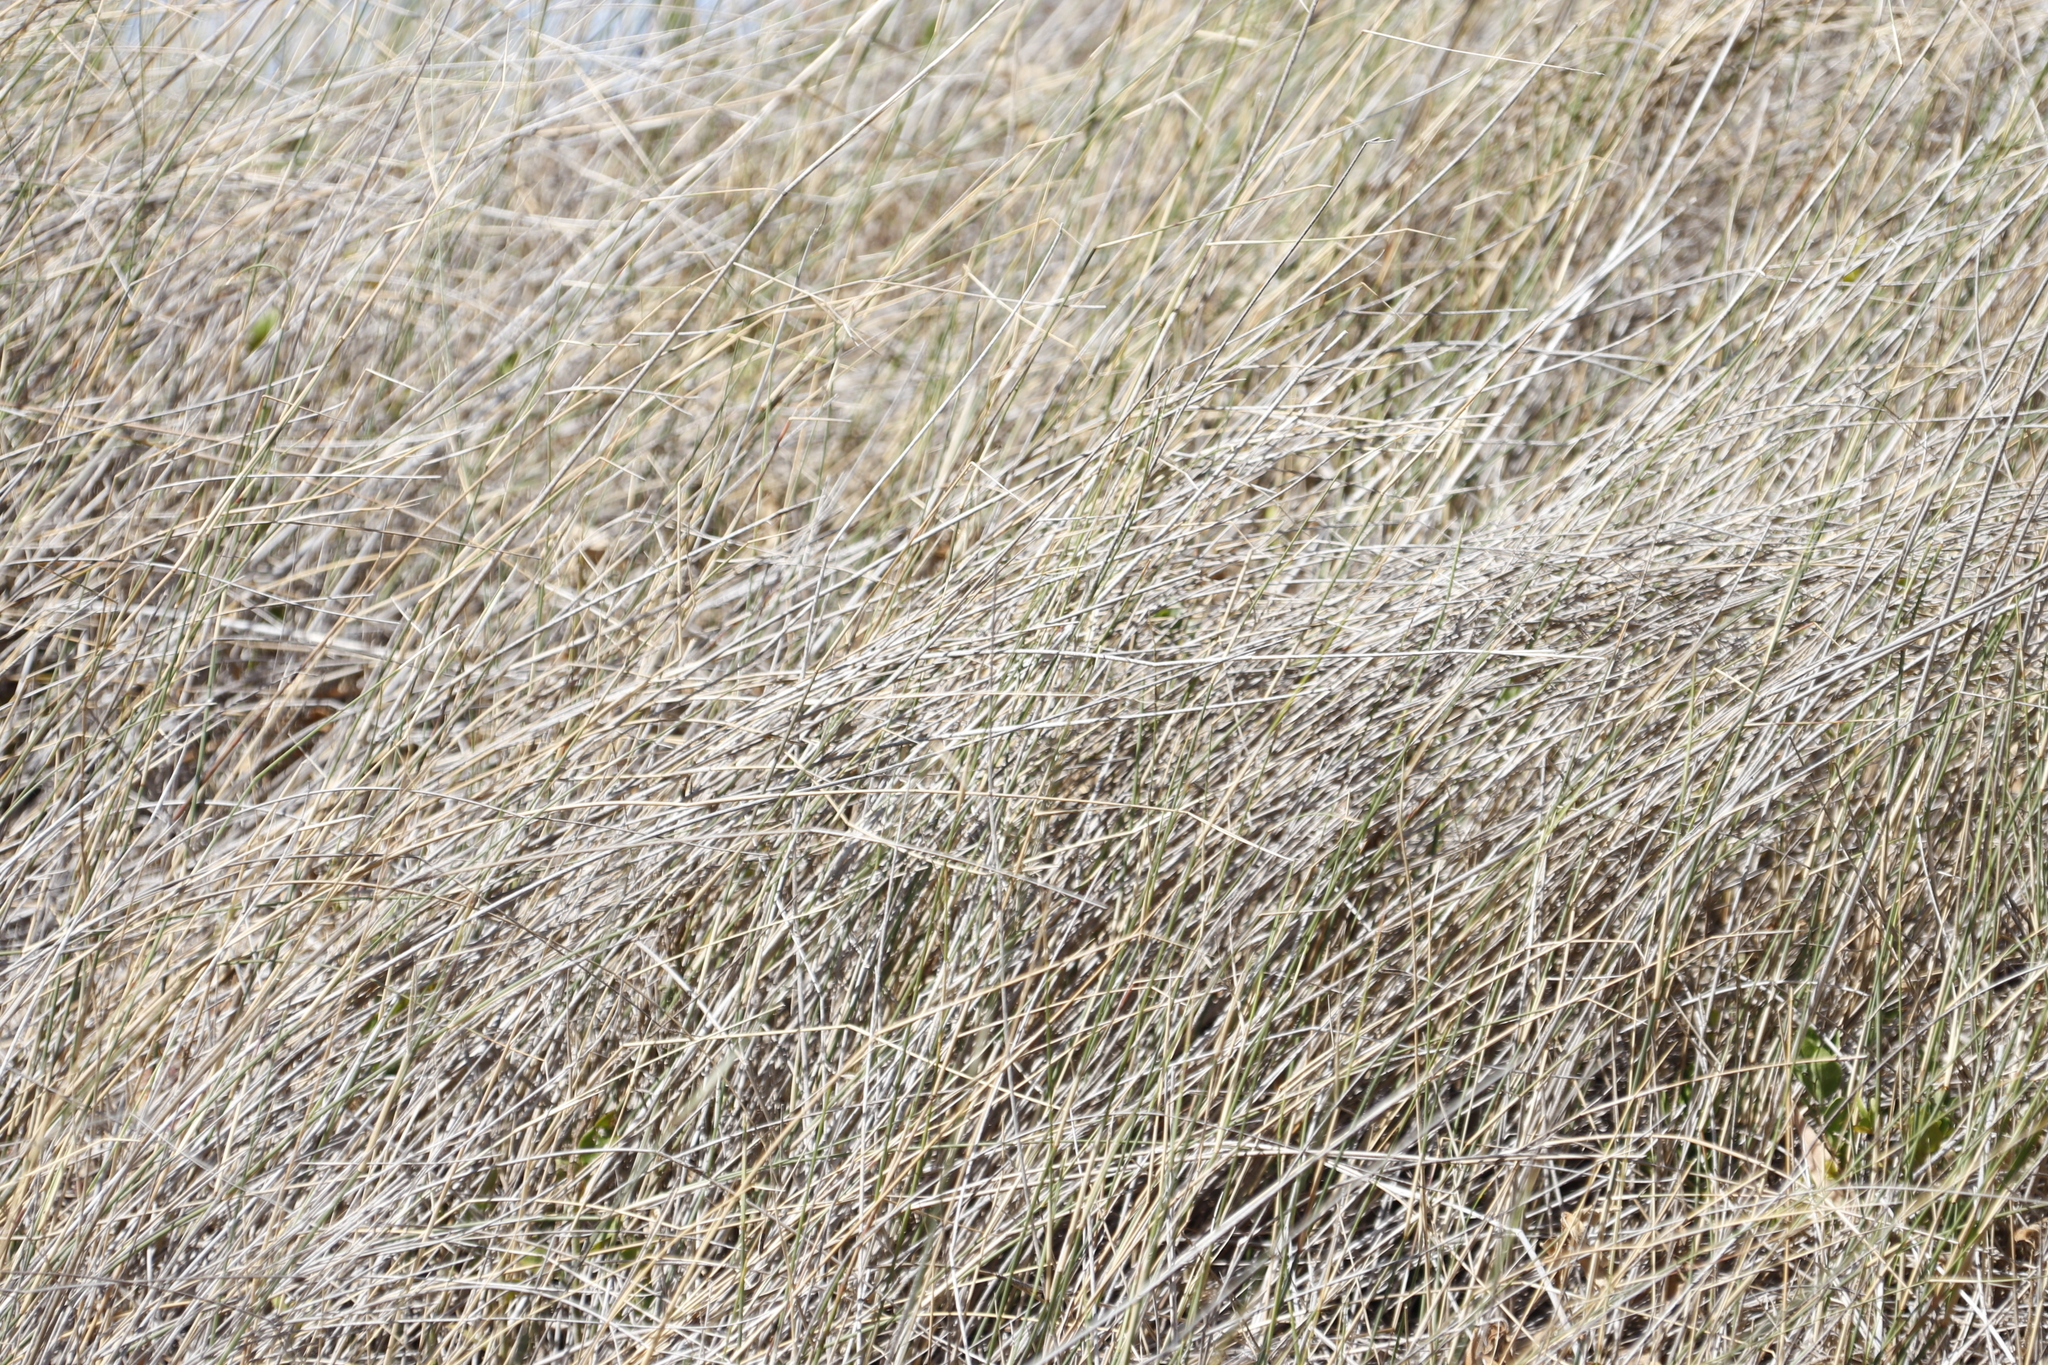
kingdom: Plantae
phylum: Tracheophyta
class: Magnoliopsida
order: Fabales
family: Fabaceae
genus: Acacia
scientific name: Acacia saligna
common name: Orange wattle
